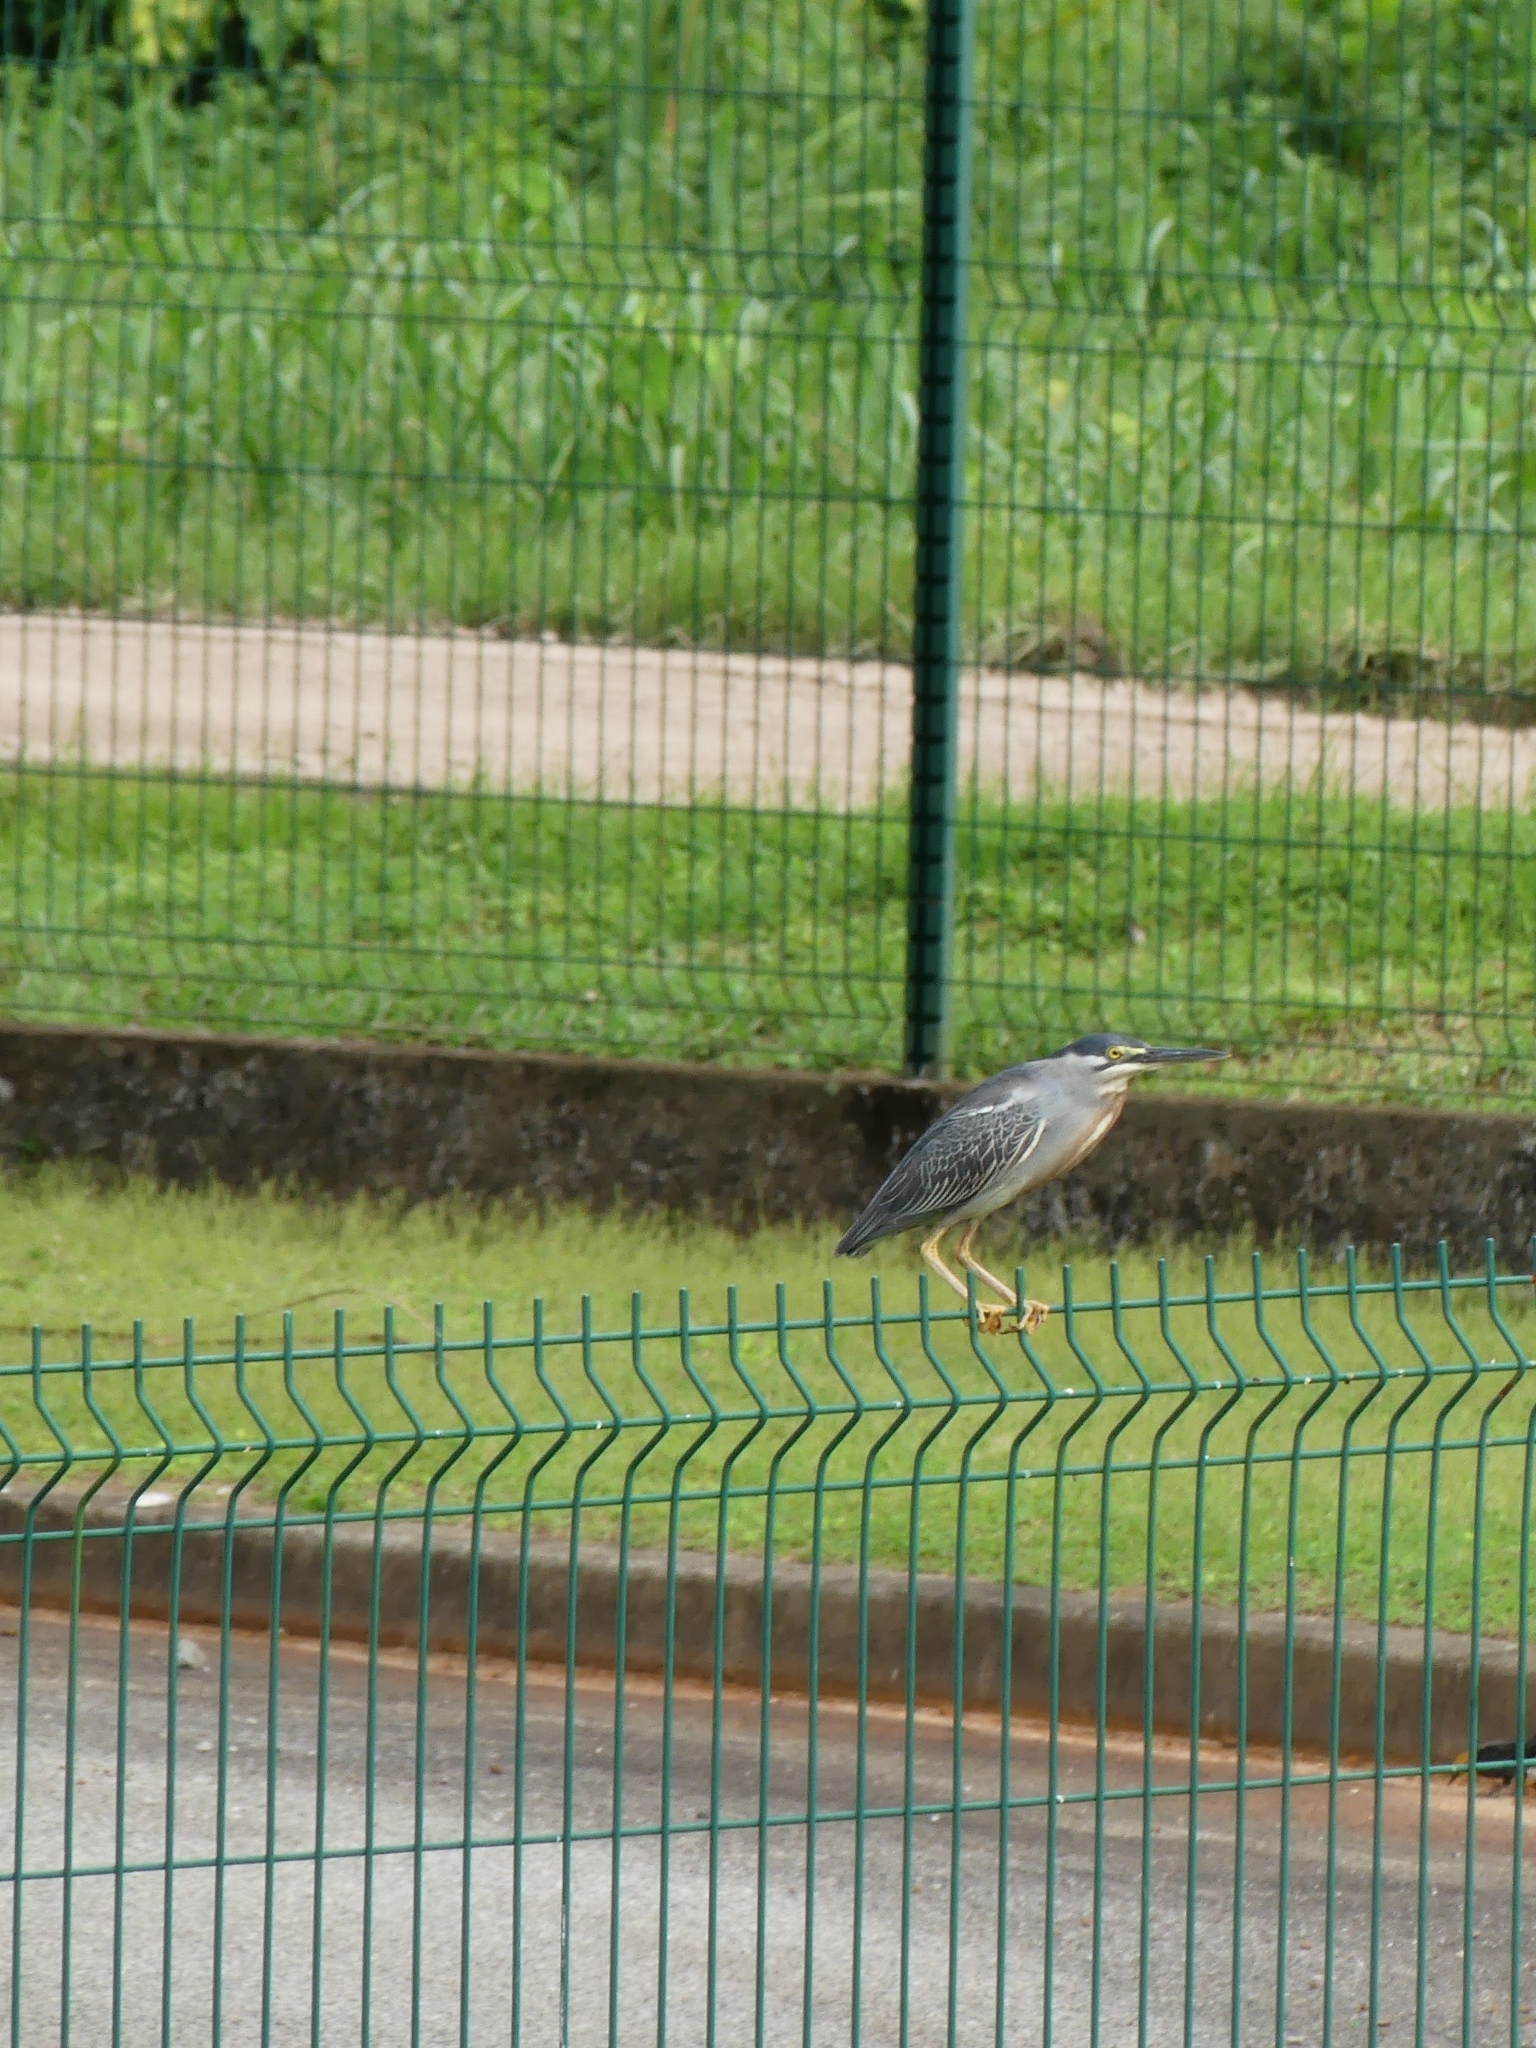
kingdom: Animalia
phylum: Chordata
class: Aves
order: Pelecaniformes
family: Ardeidae
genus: Butorides
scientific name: Butorides striata
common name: Striated heron
